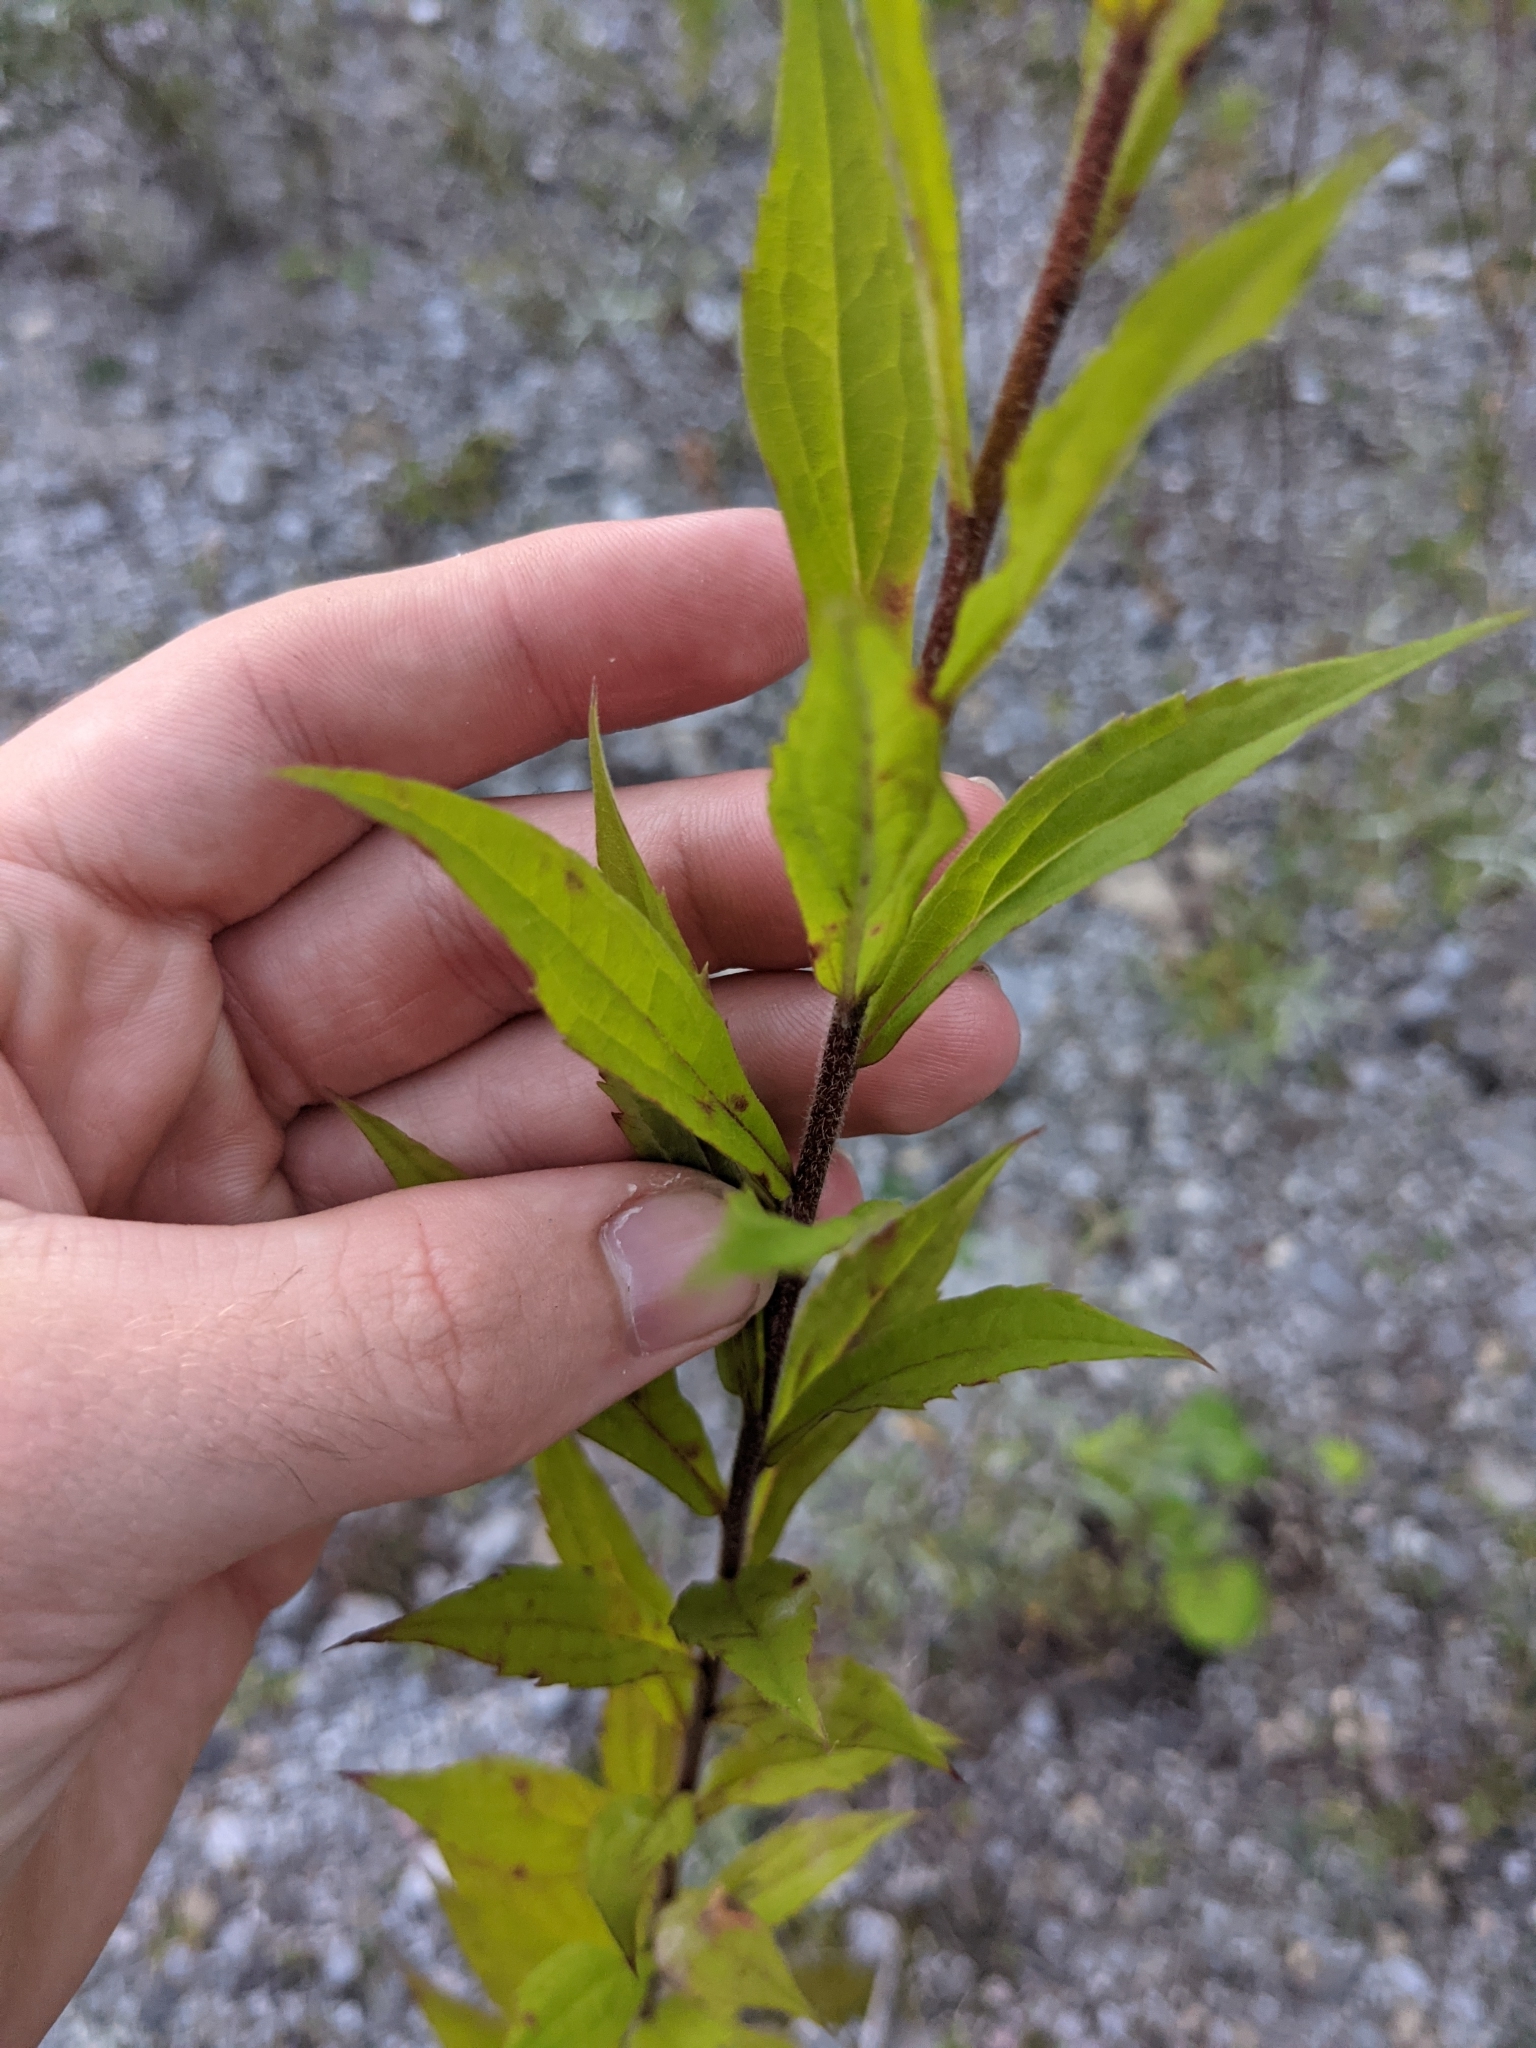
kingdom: Plantae
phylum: Tracheophyta
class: Magnoliopsida
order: Asterales
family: Asteraceae
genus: Solidago
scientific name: Solidago canadensis
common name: Canada goldenrod
